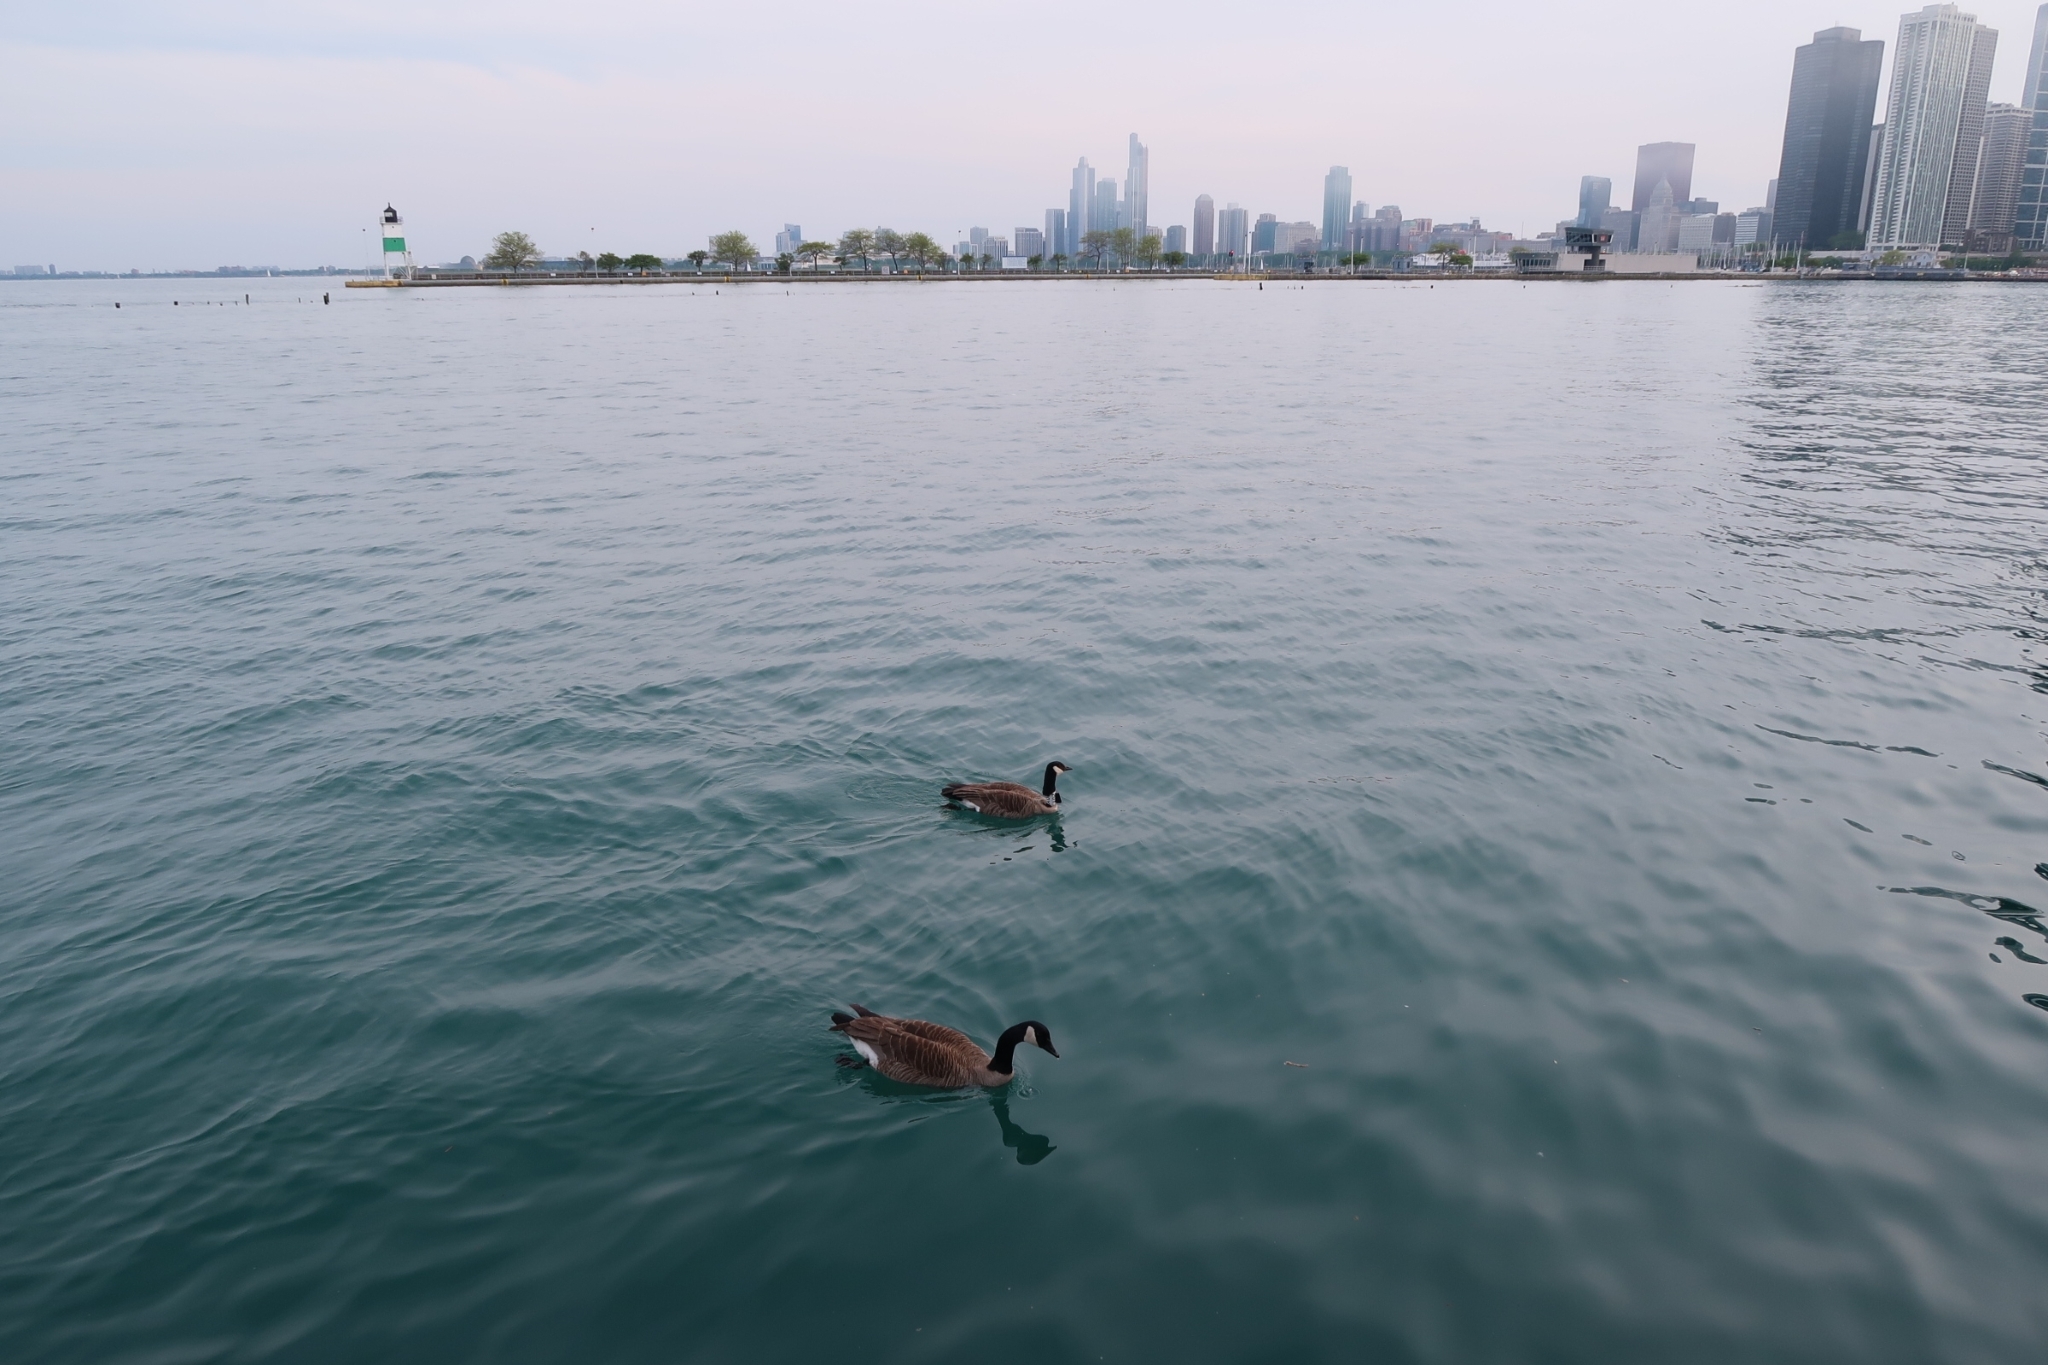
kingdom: Animalia
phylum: Chordata
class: Aves
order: Anseriformes
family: Anatidae
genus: Branta
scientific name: Branta canadensis
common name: Canada goose
